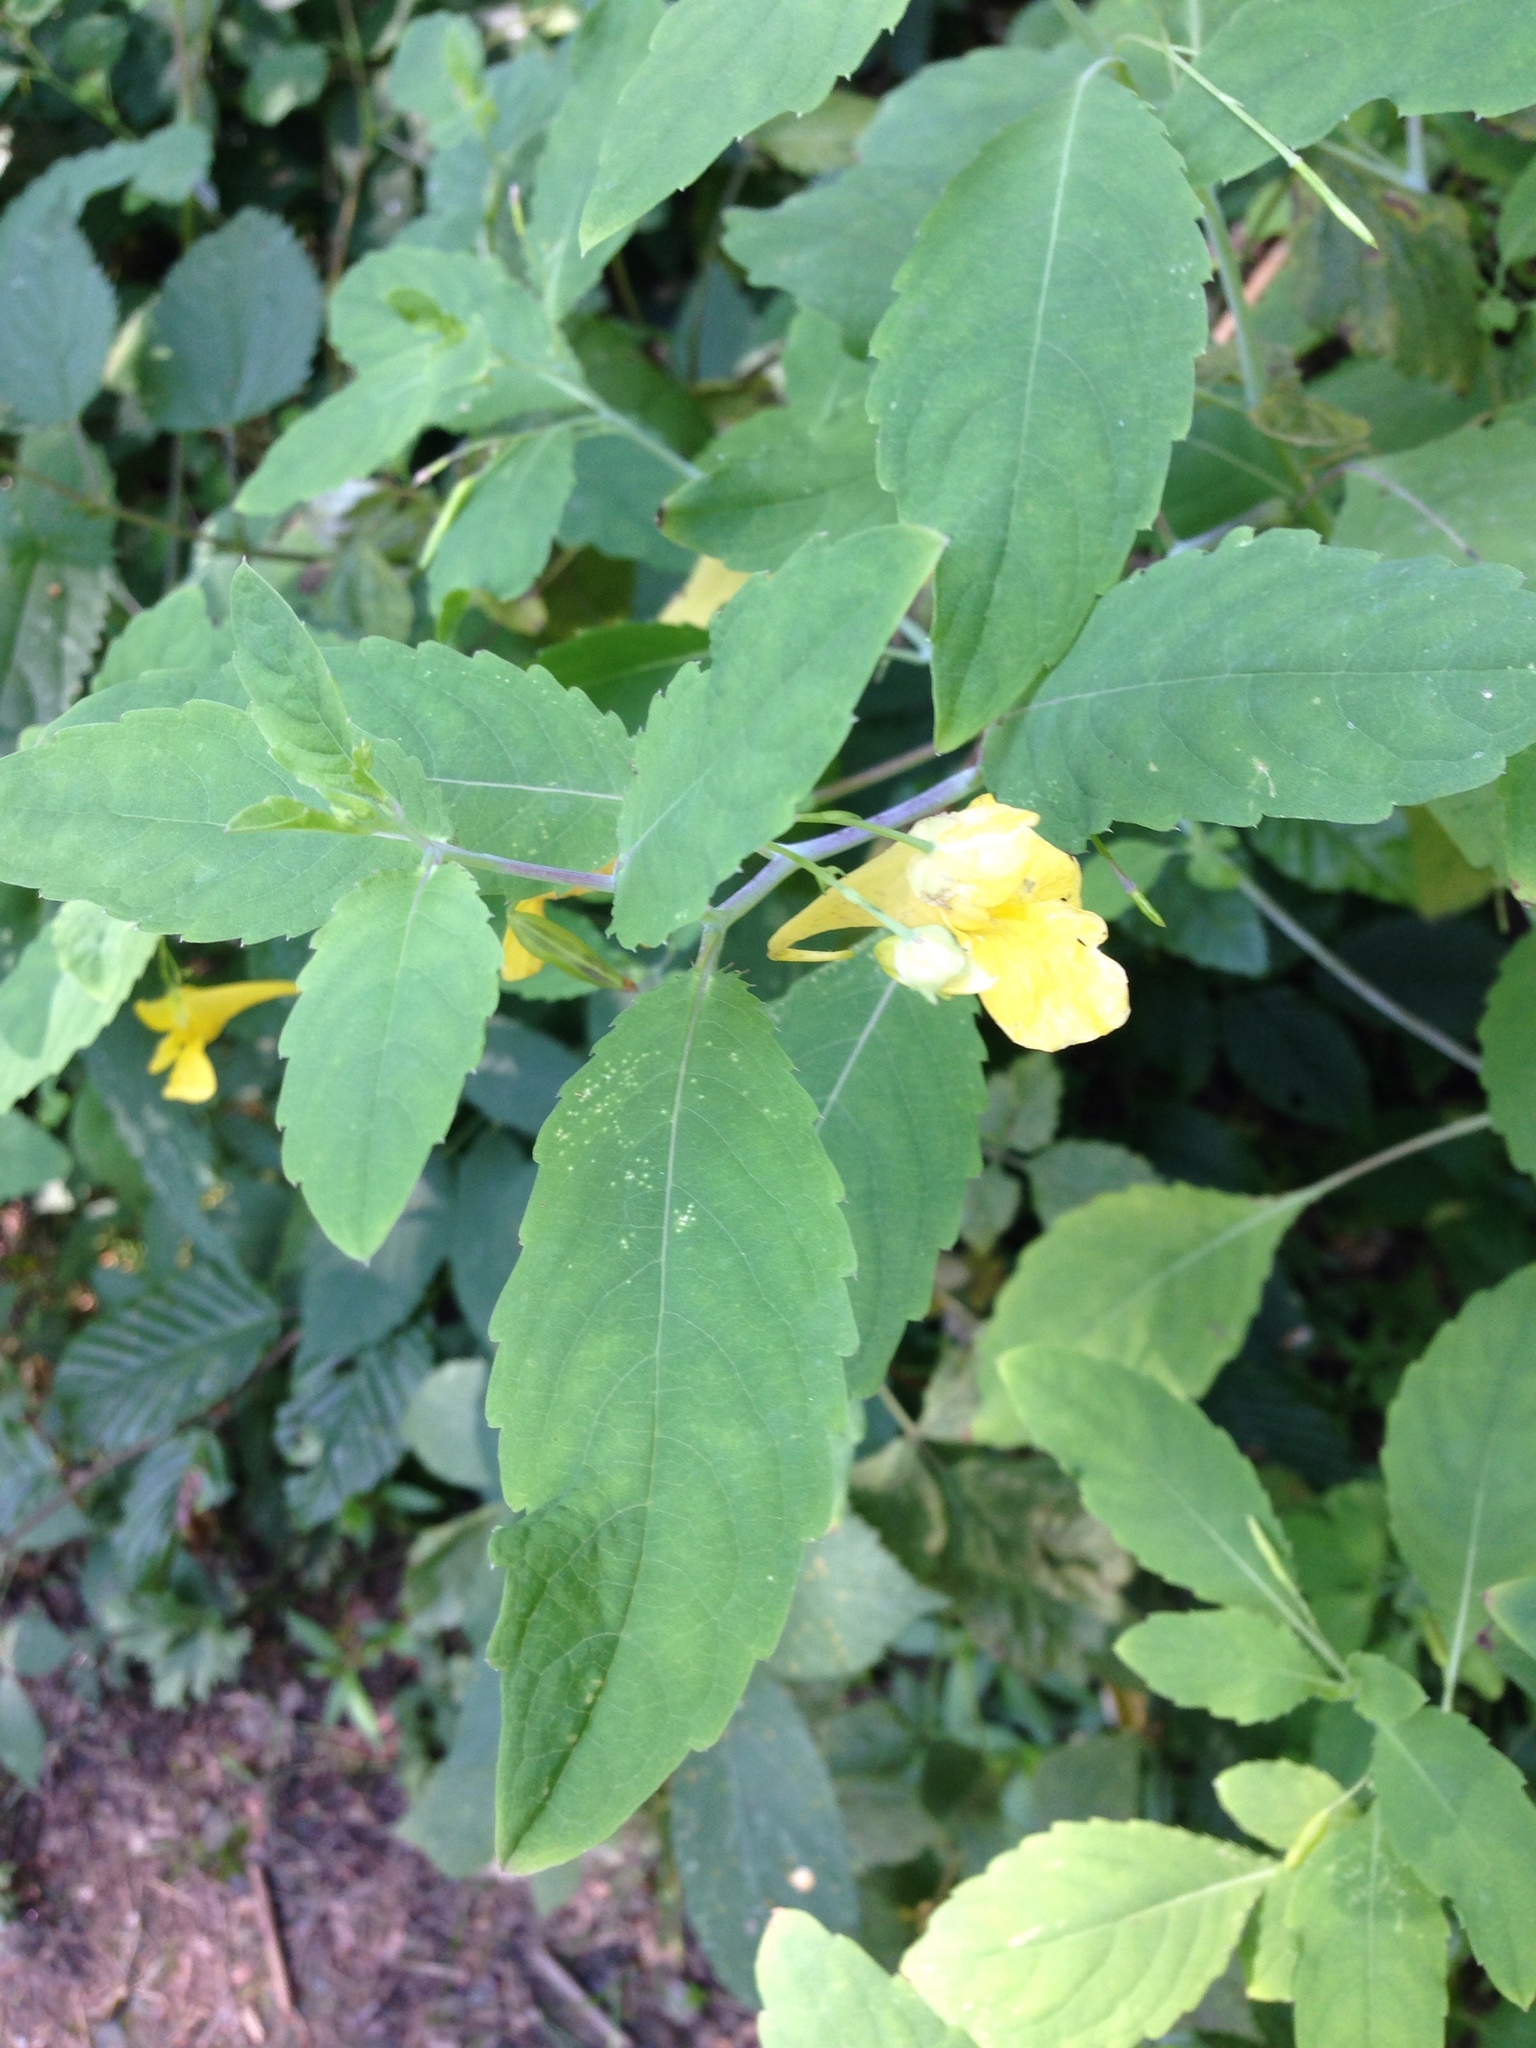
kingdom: Plantae
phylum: Tracheophyta
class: Magnoliopsida
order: Ericales
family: Balsaminaceae
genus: Impatiens
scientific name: Impatiens noli-tangere
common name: Touch-me-not balsam
